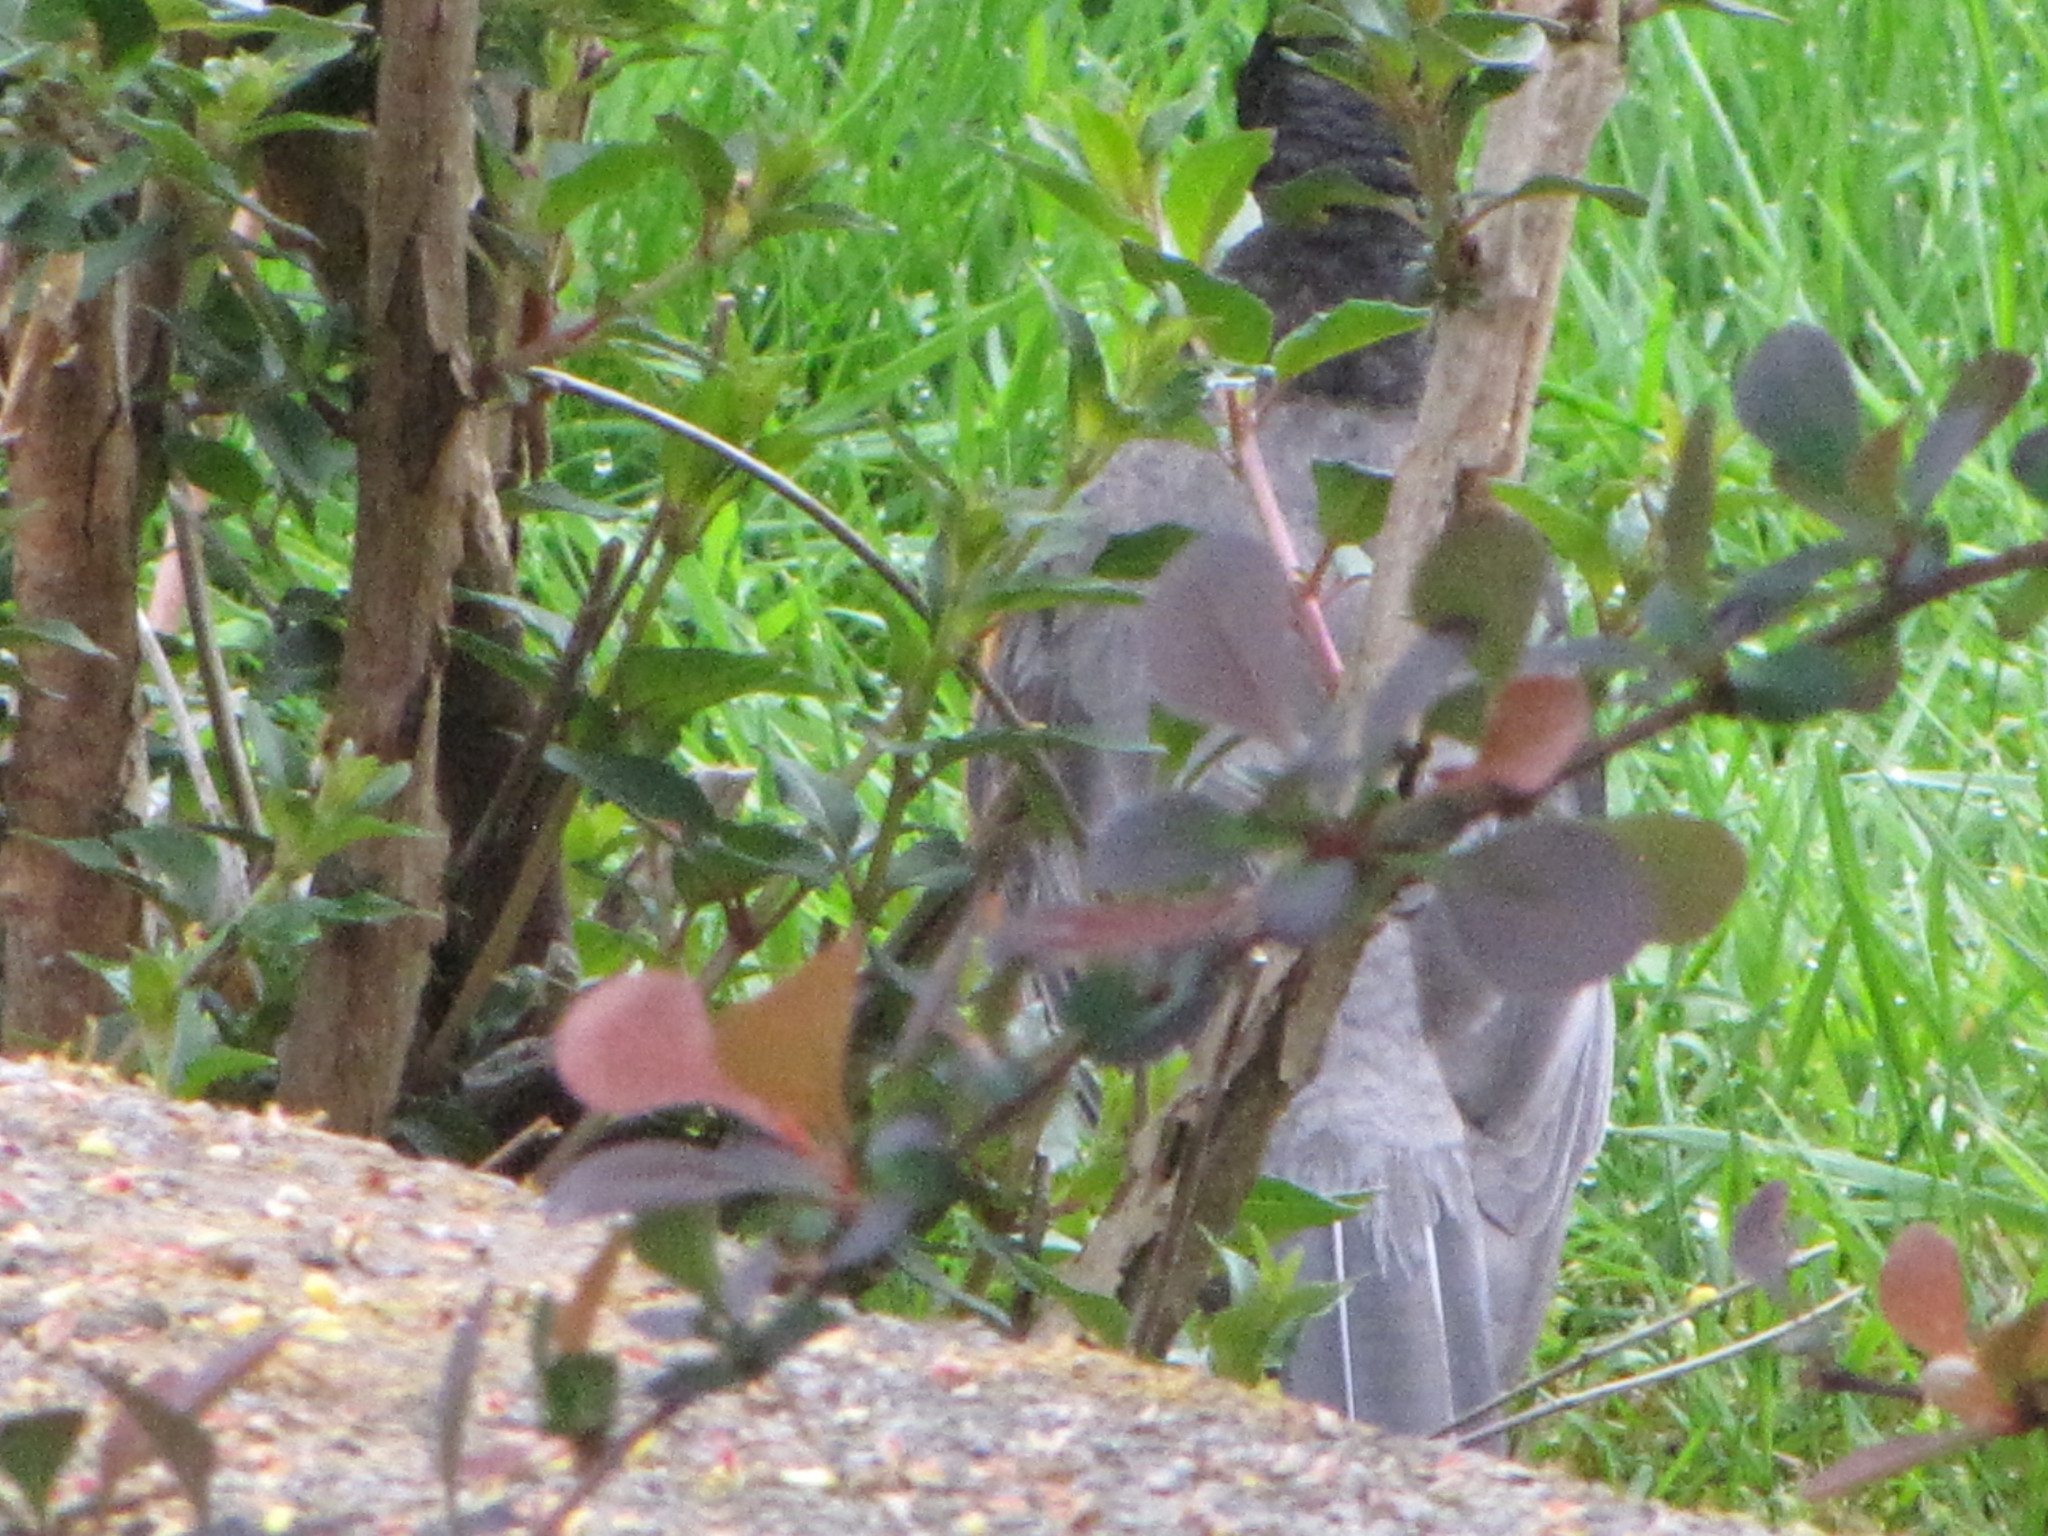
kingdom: Animalia
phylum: Chordata
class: Aves
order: Passeriformes
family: Turdidae
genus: Turdus
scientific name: Turdus migratorius
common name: American robin
